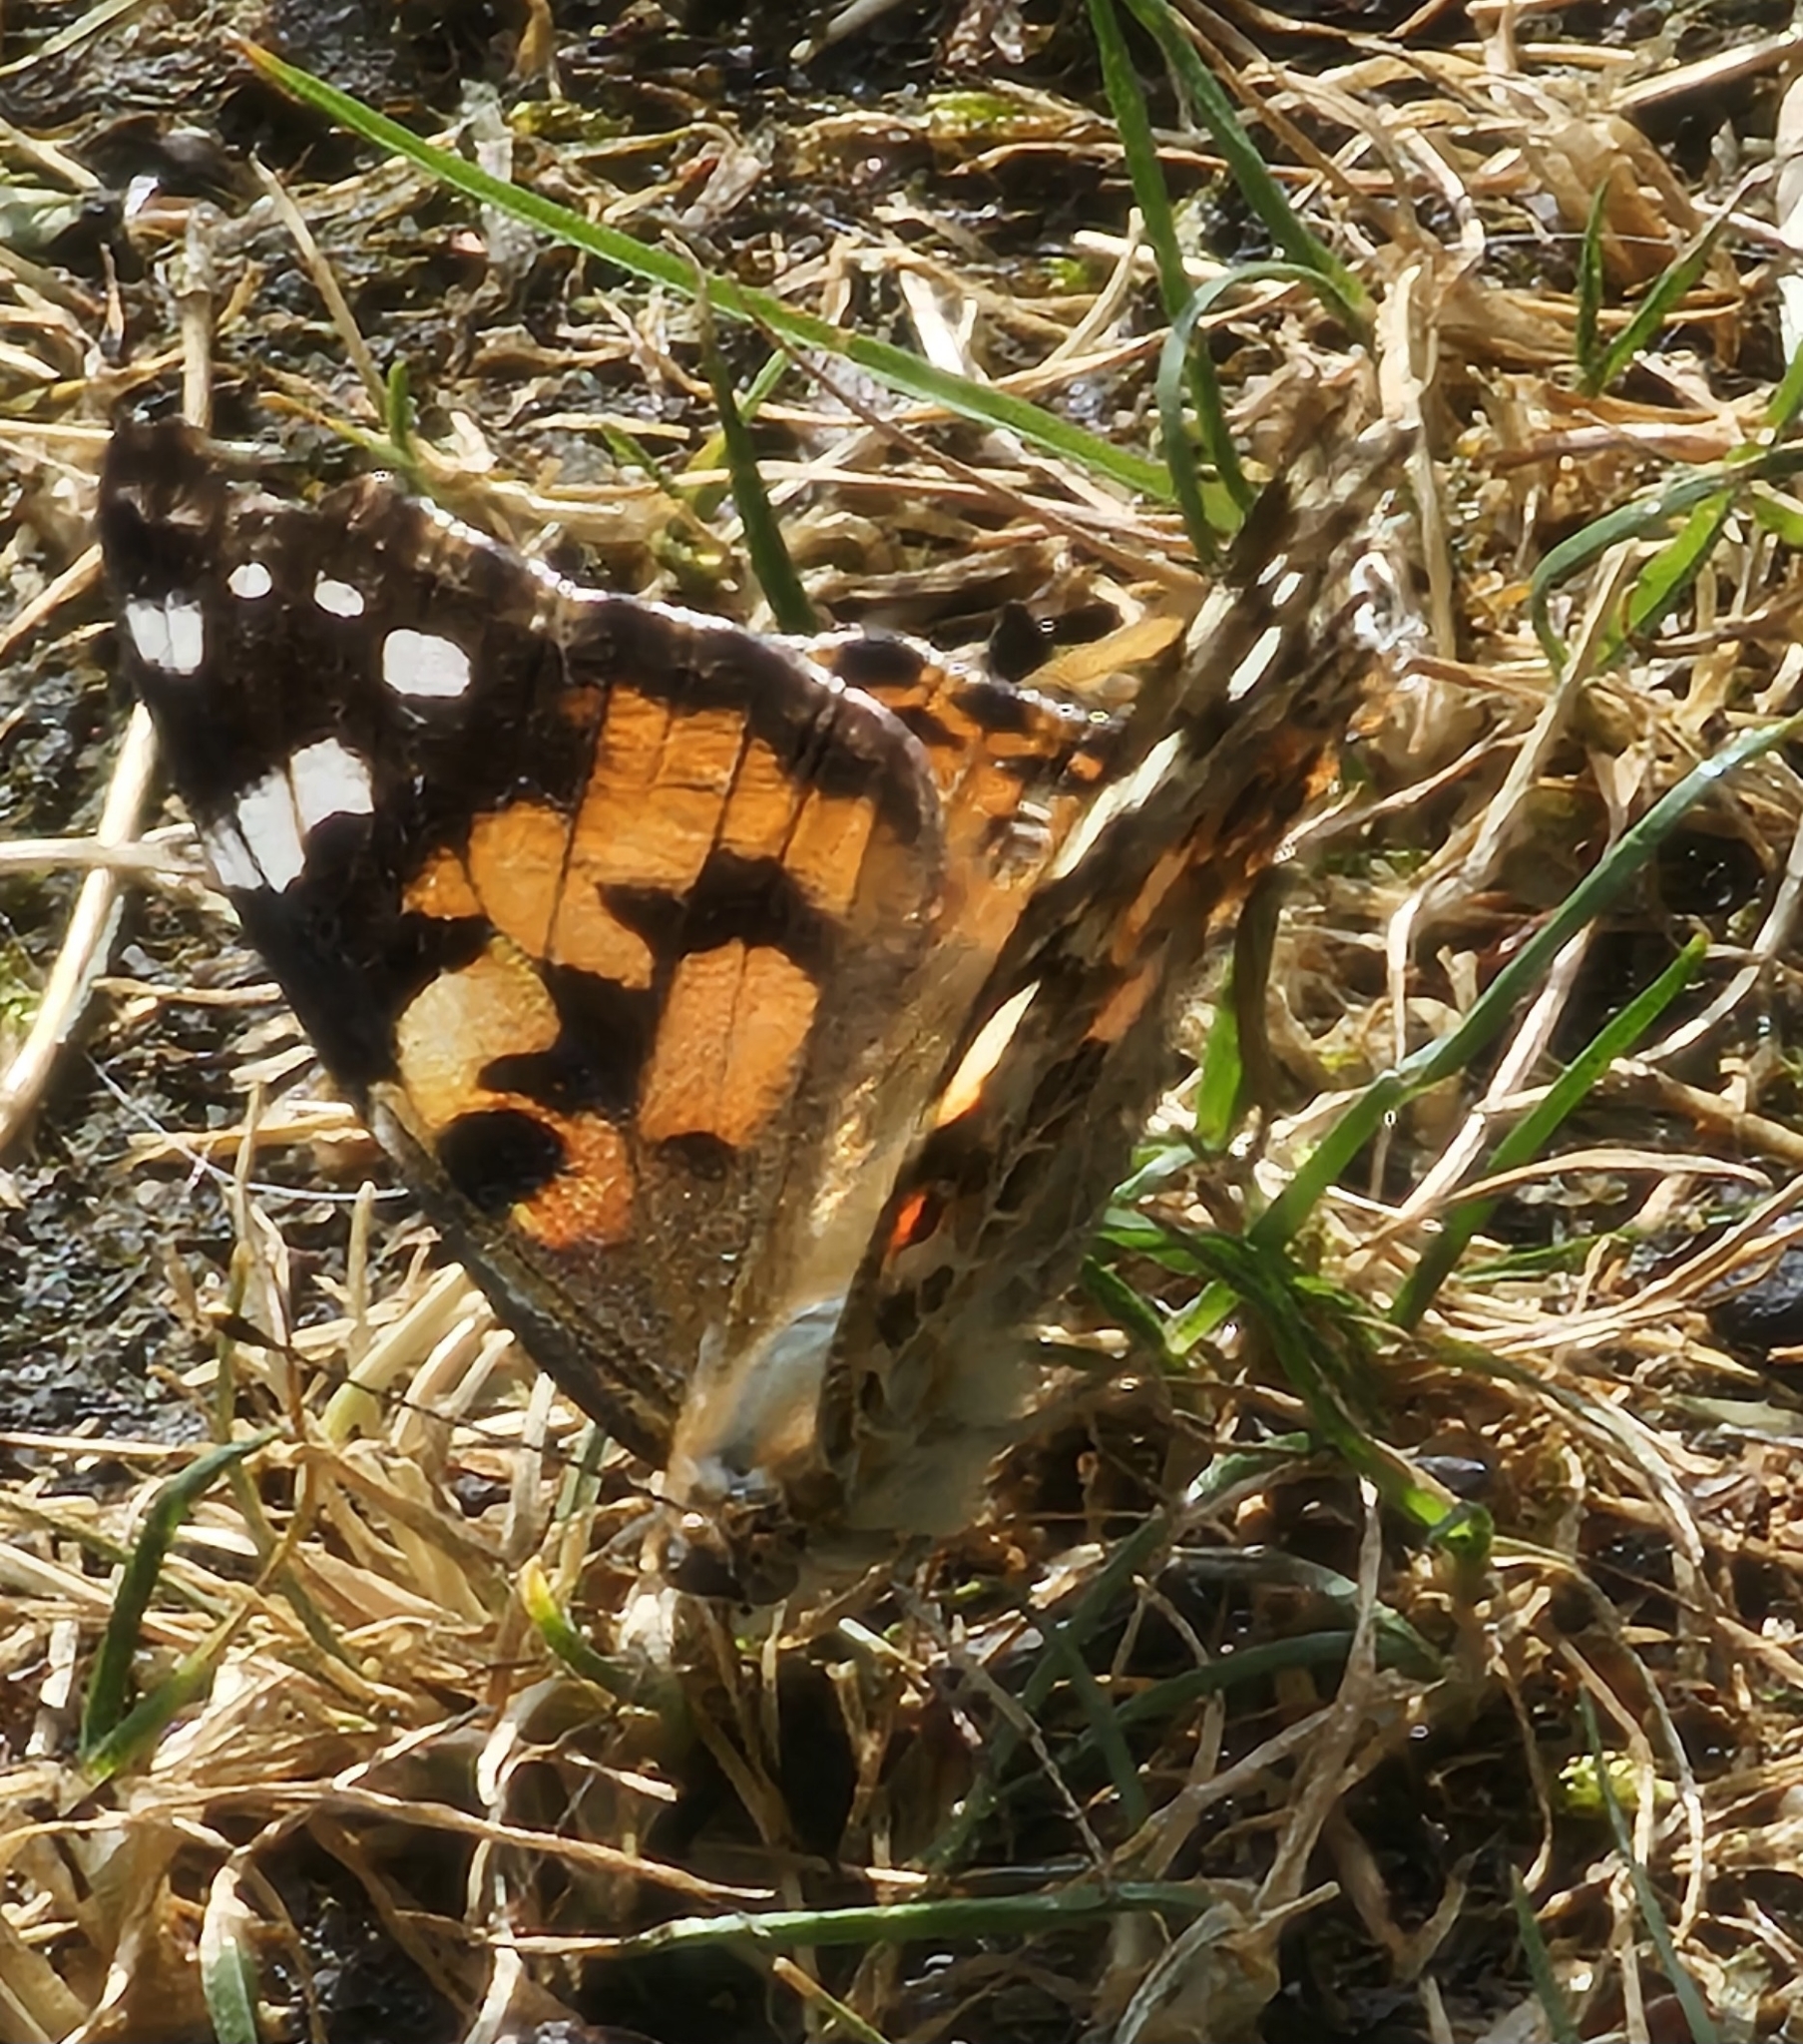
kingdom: Animalia
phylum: Arthropoda
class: Insecta
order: Lepidoptera
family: Nymphalidae
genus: Vanessa
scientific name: Vanessa cardui
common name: Painted lady
